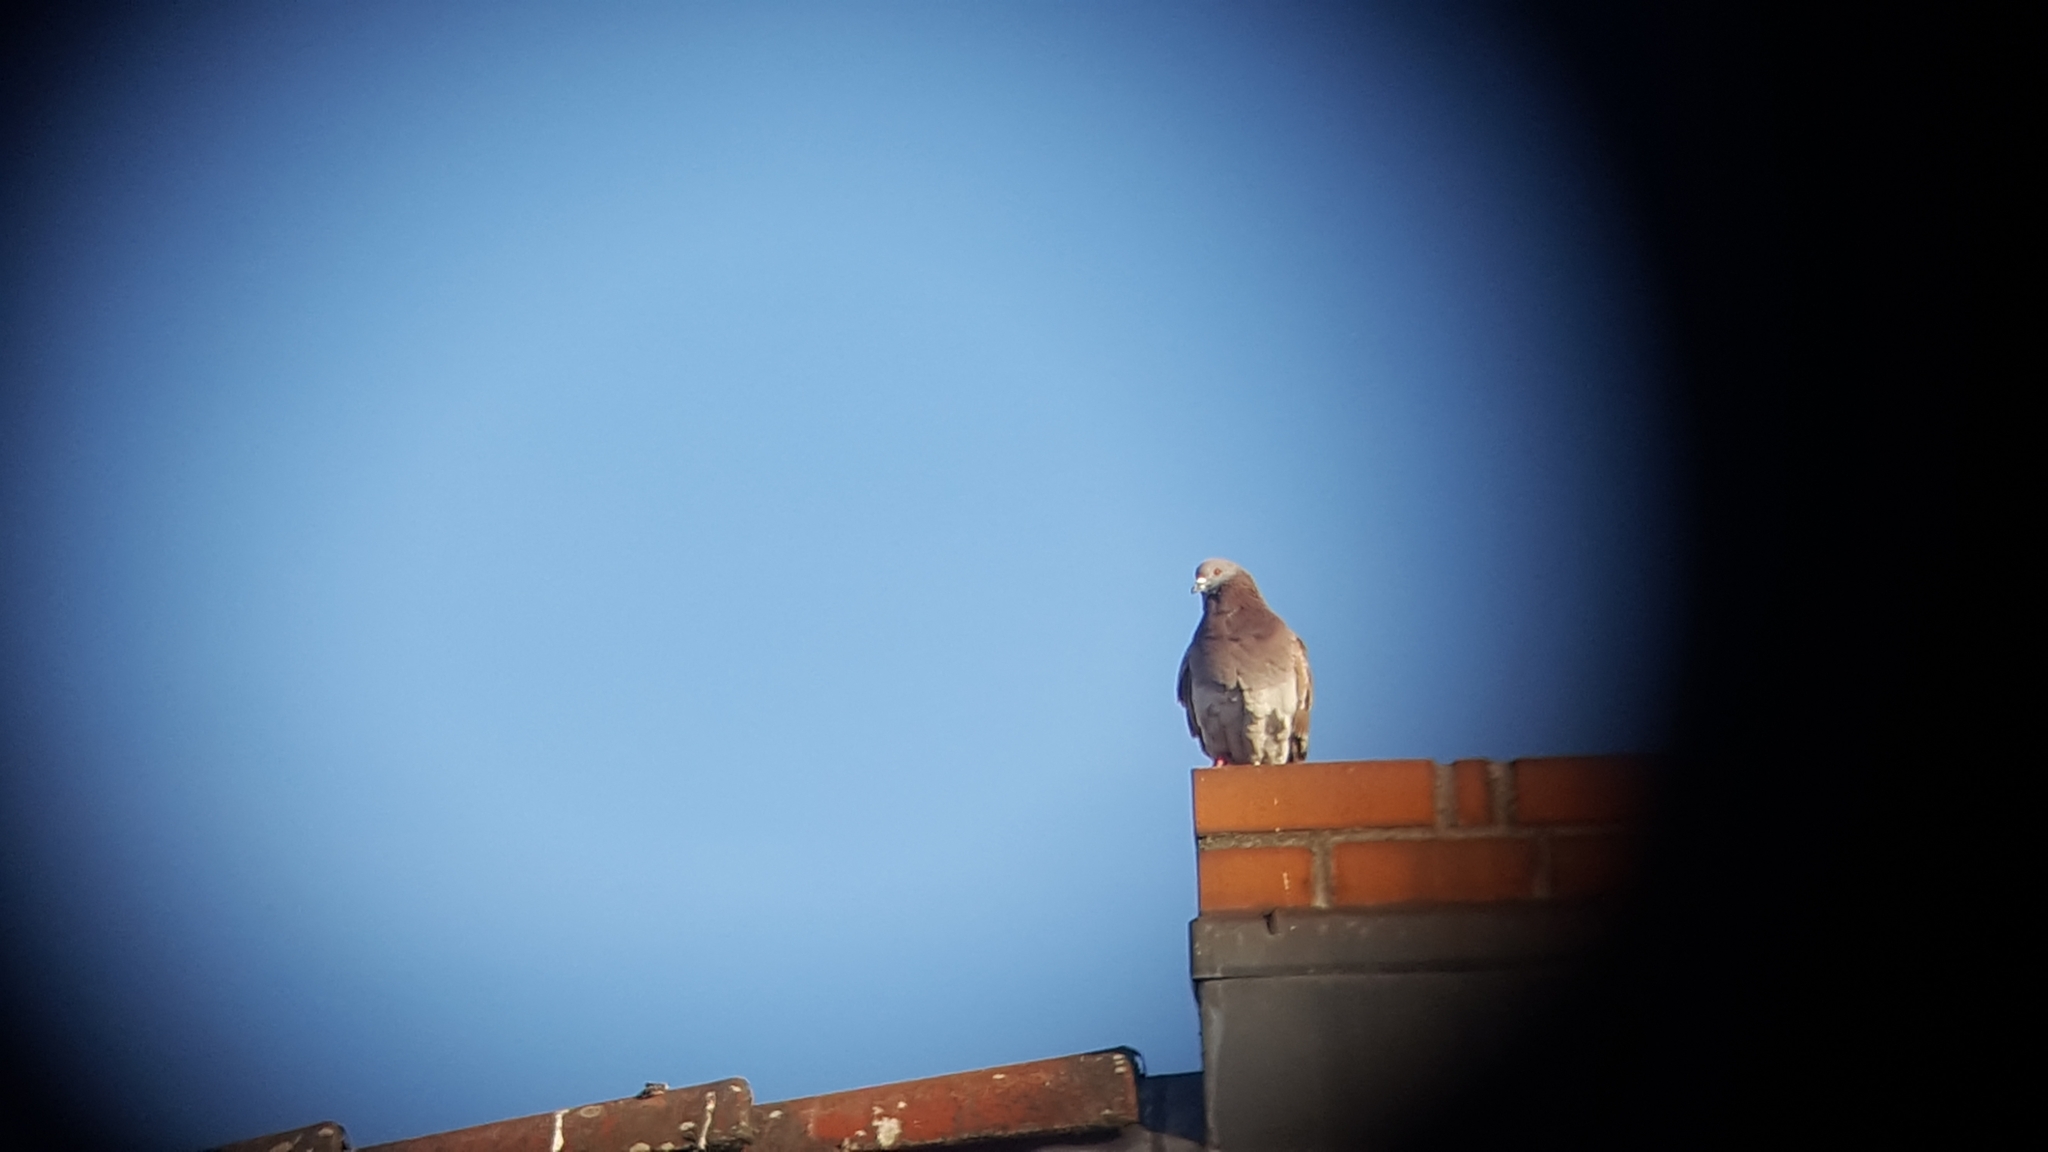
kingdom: Animalia
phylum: Chordata
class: Aves
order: Columbiformes
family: Columbidae
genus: Columba
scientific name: Columba livia
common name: Rock pigeon
